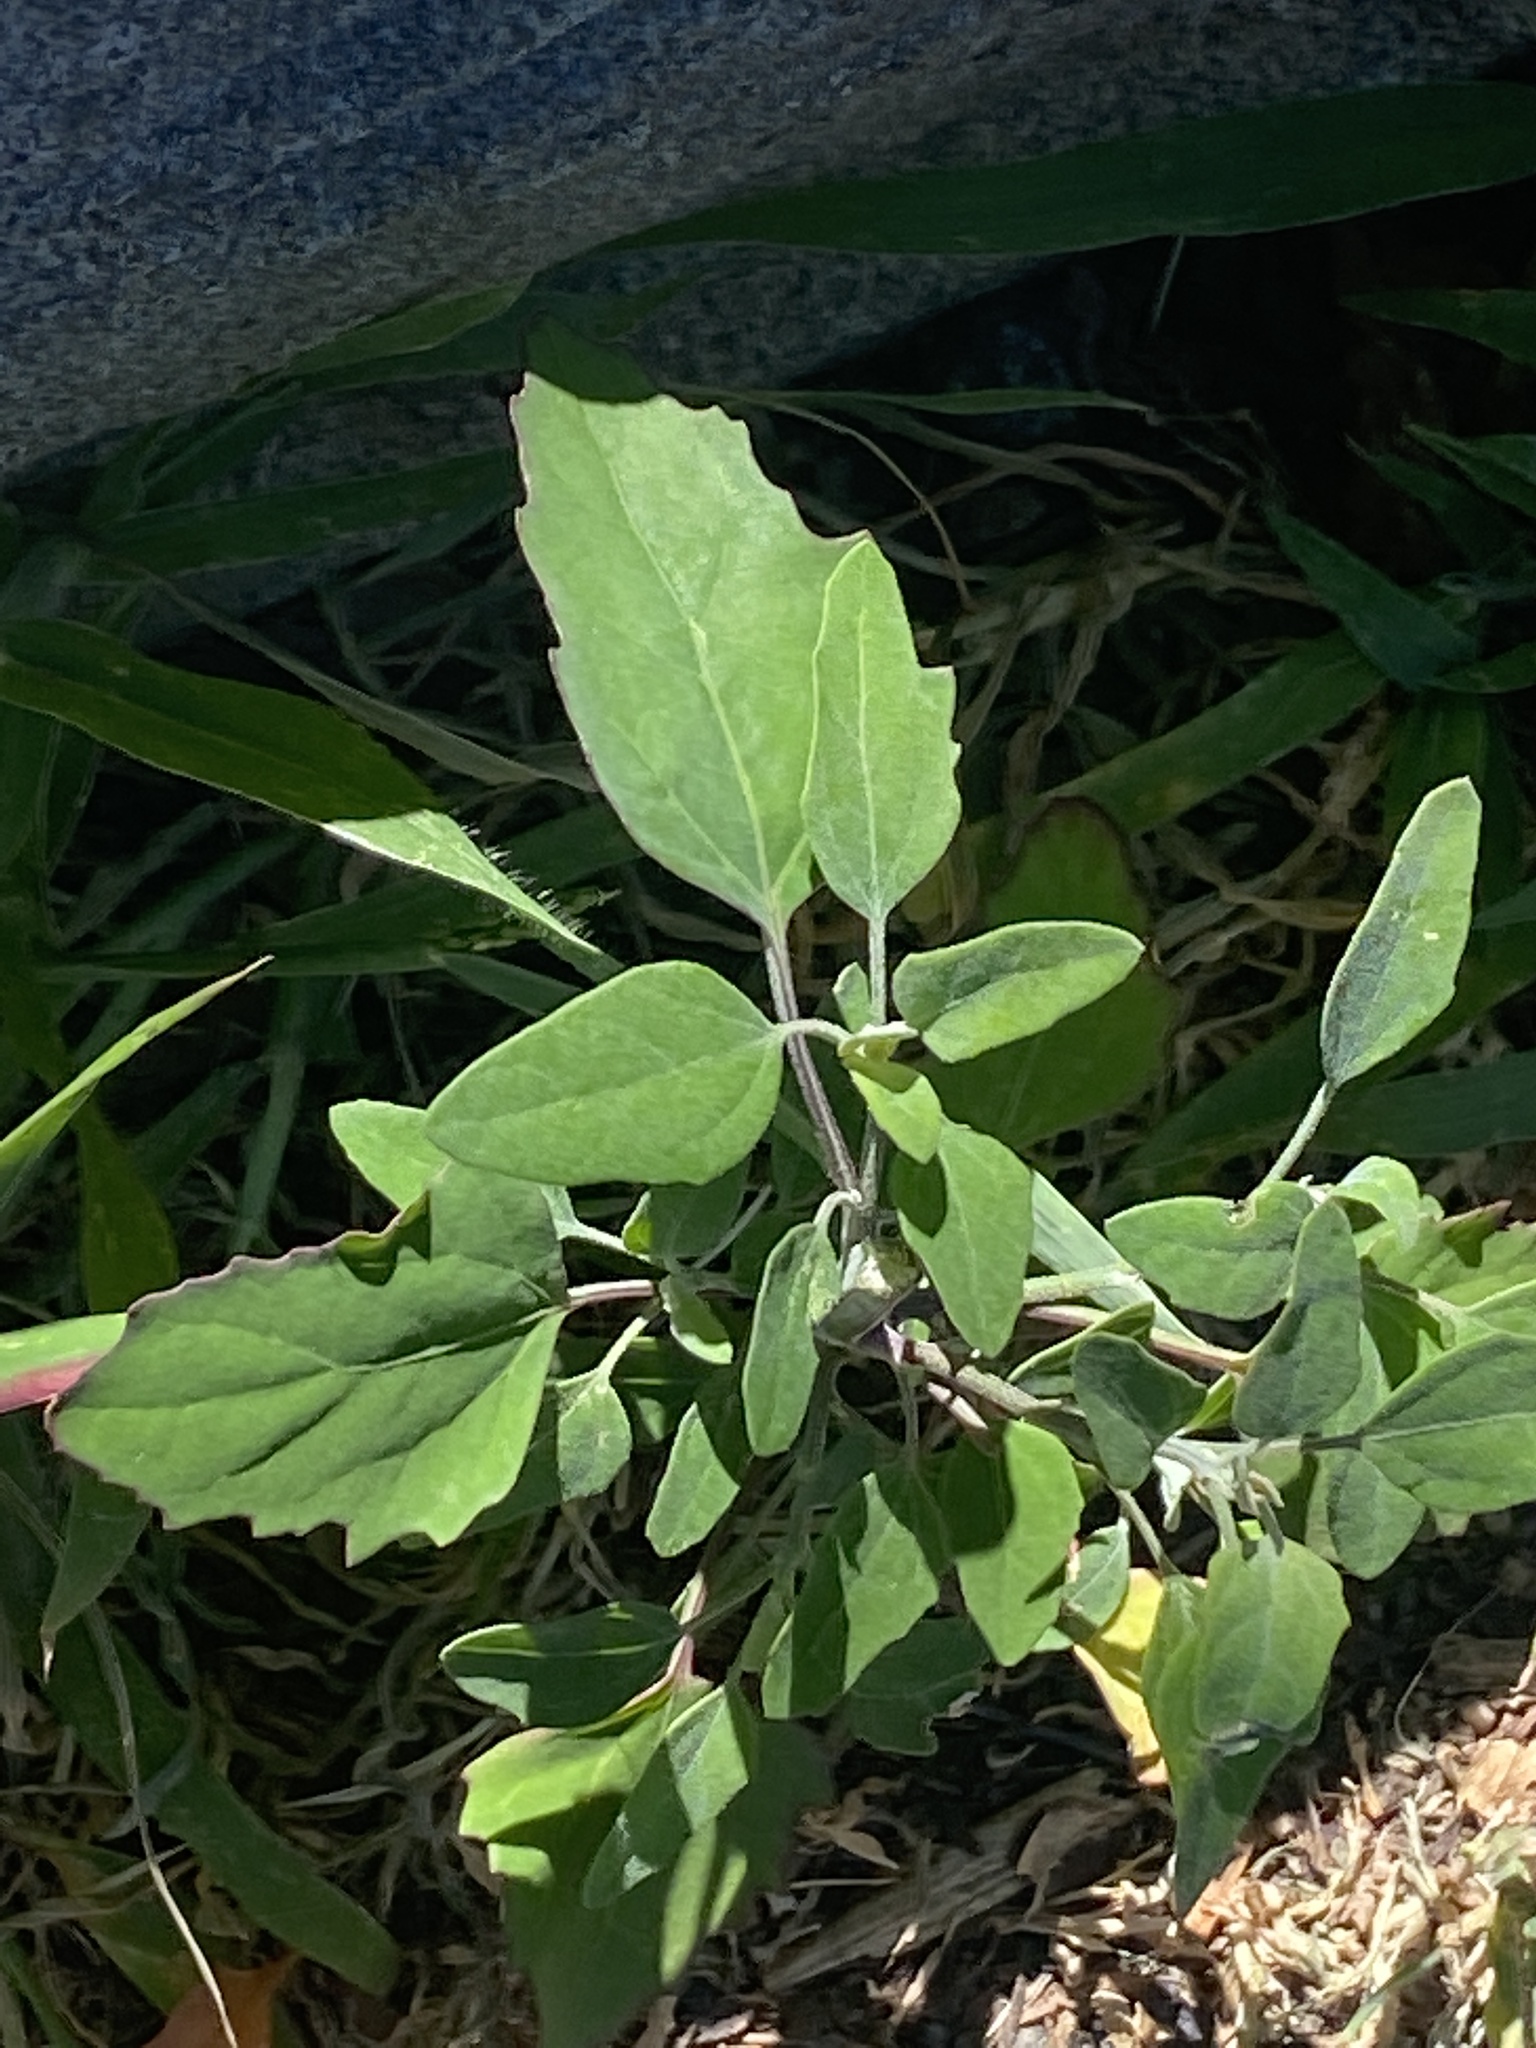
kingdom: Plantae
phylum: Tracheophyta
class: Magnoliopsida
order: Caryophyllales
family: Amaranthaceae
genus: Chenopodium
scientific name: Chenopodium album
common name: Fat-hen
